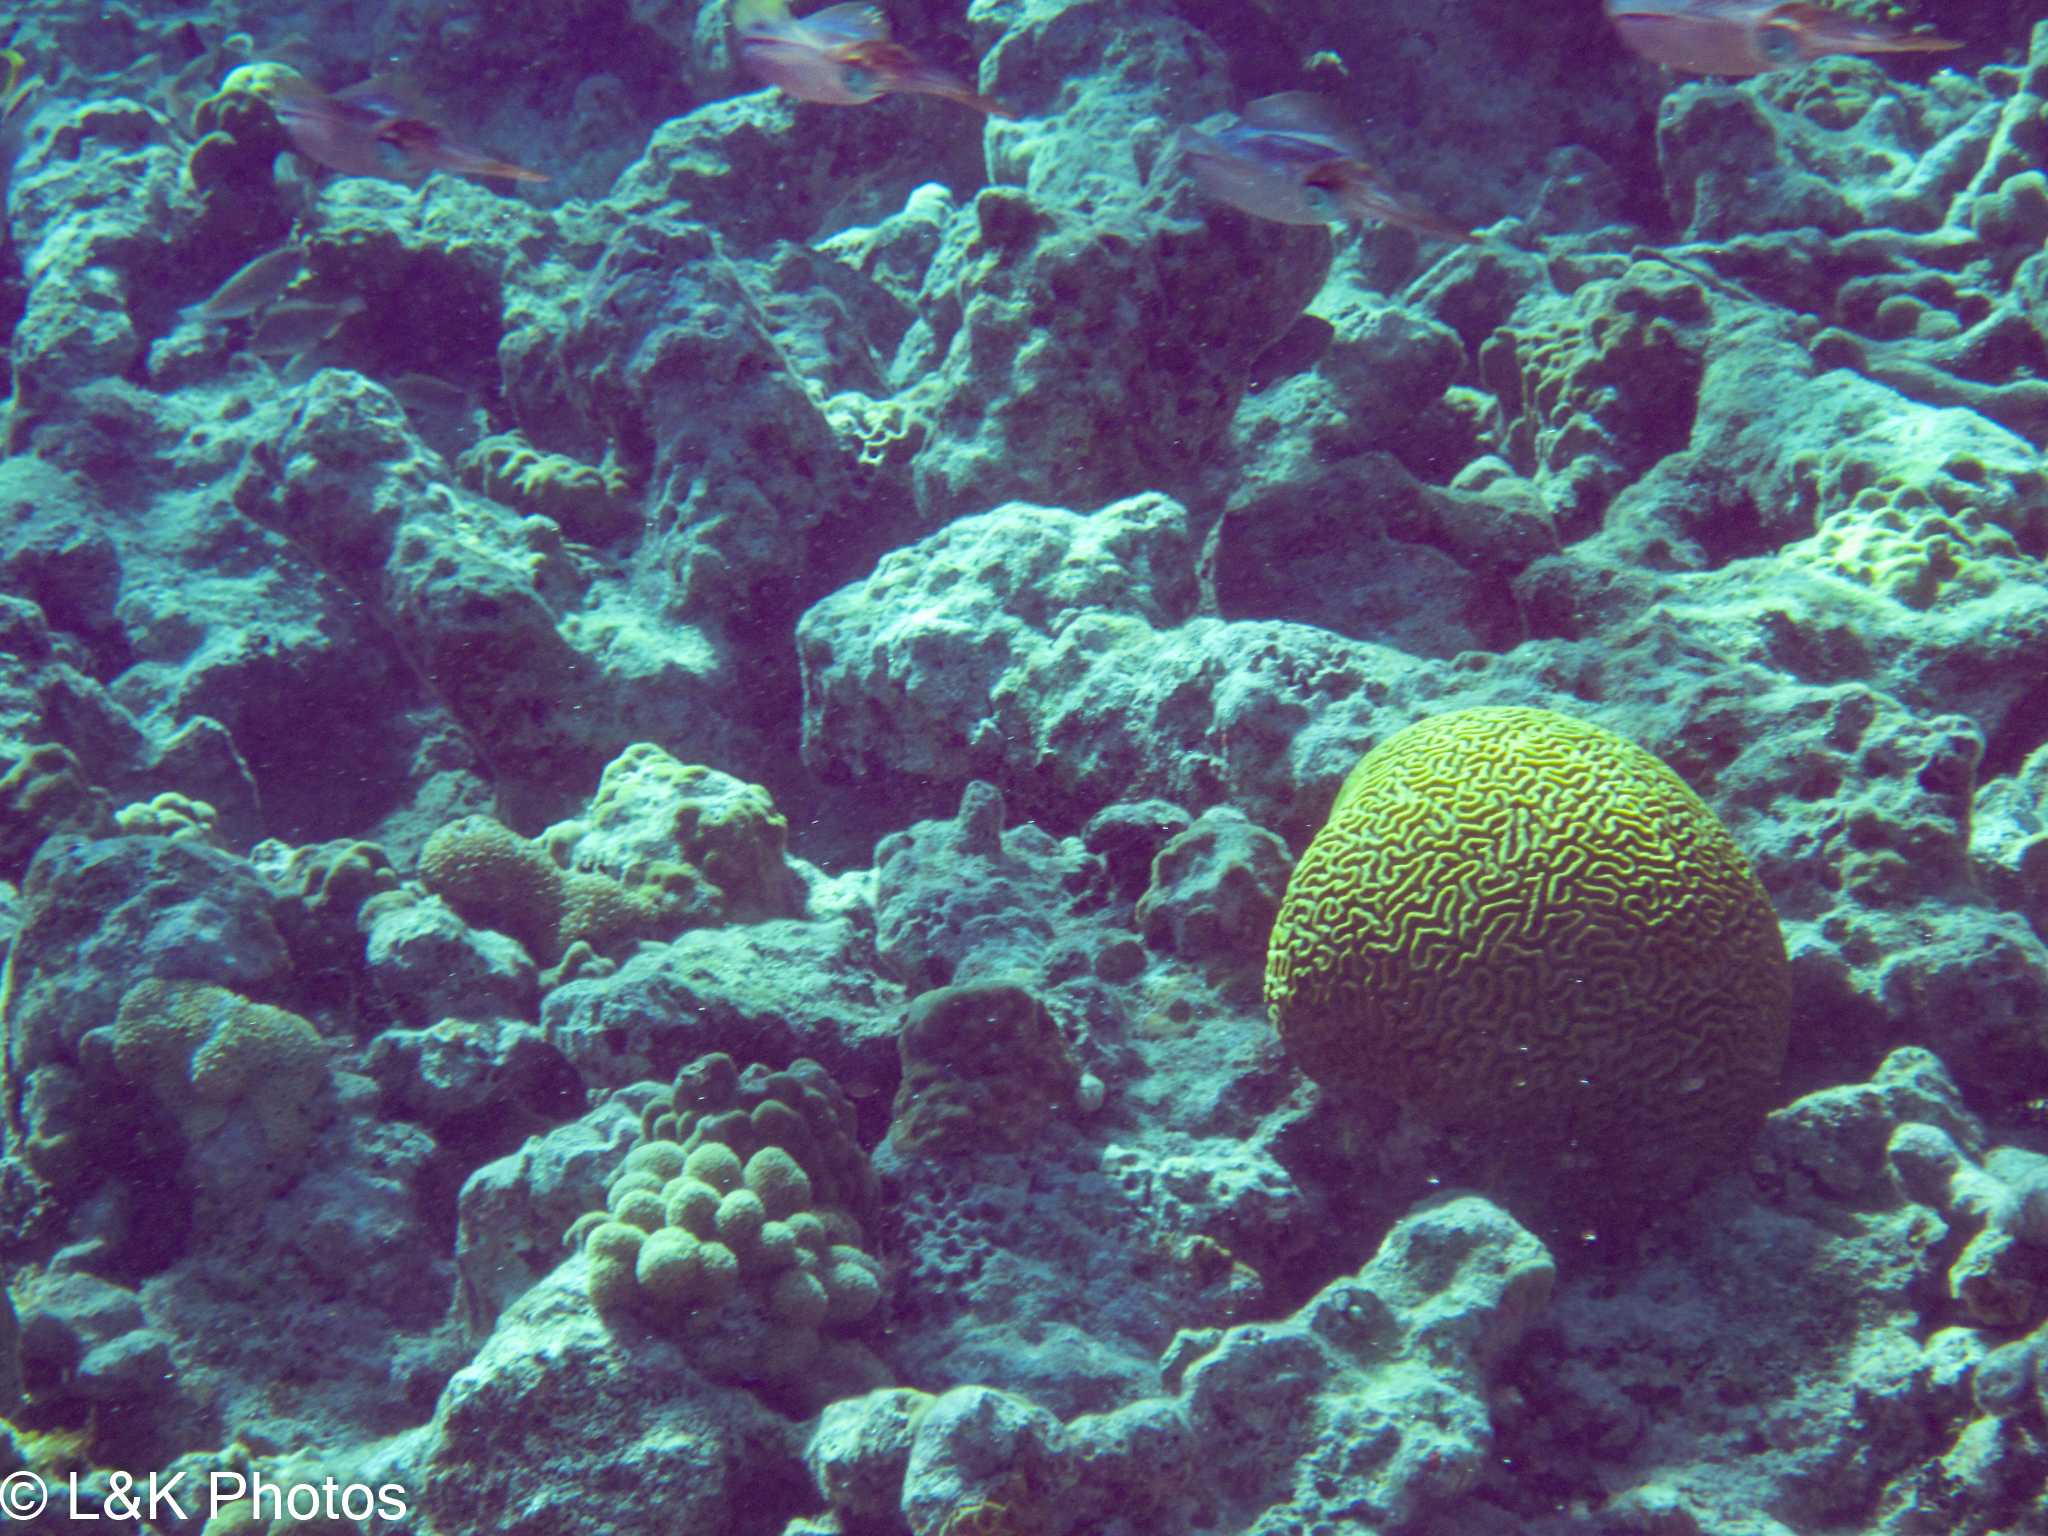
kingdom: Animalia
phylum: Cnidaria
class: Anthozoa
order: Scleractinia
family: Faviidae
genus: Pseudodiploria
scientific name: Pseudodiploria strigosa
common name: Symmetrical brain coral
